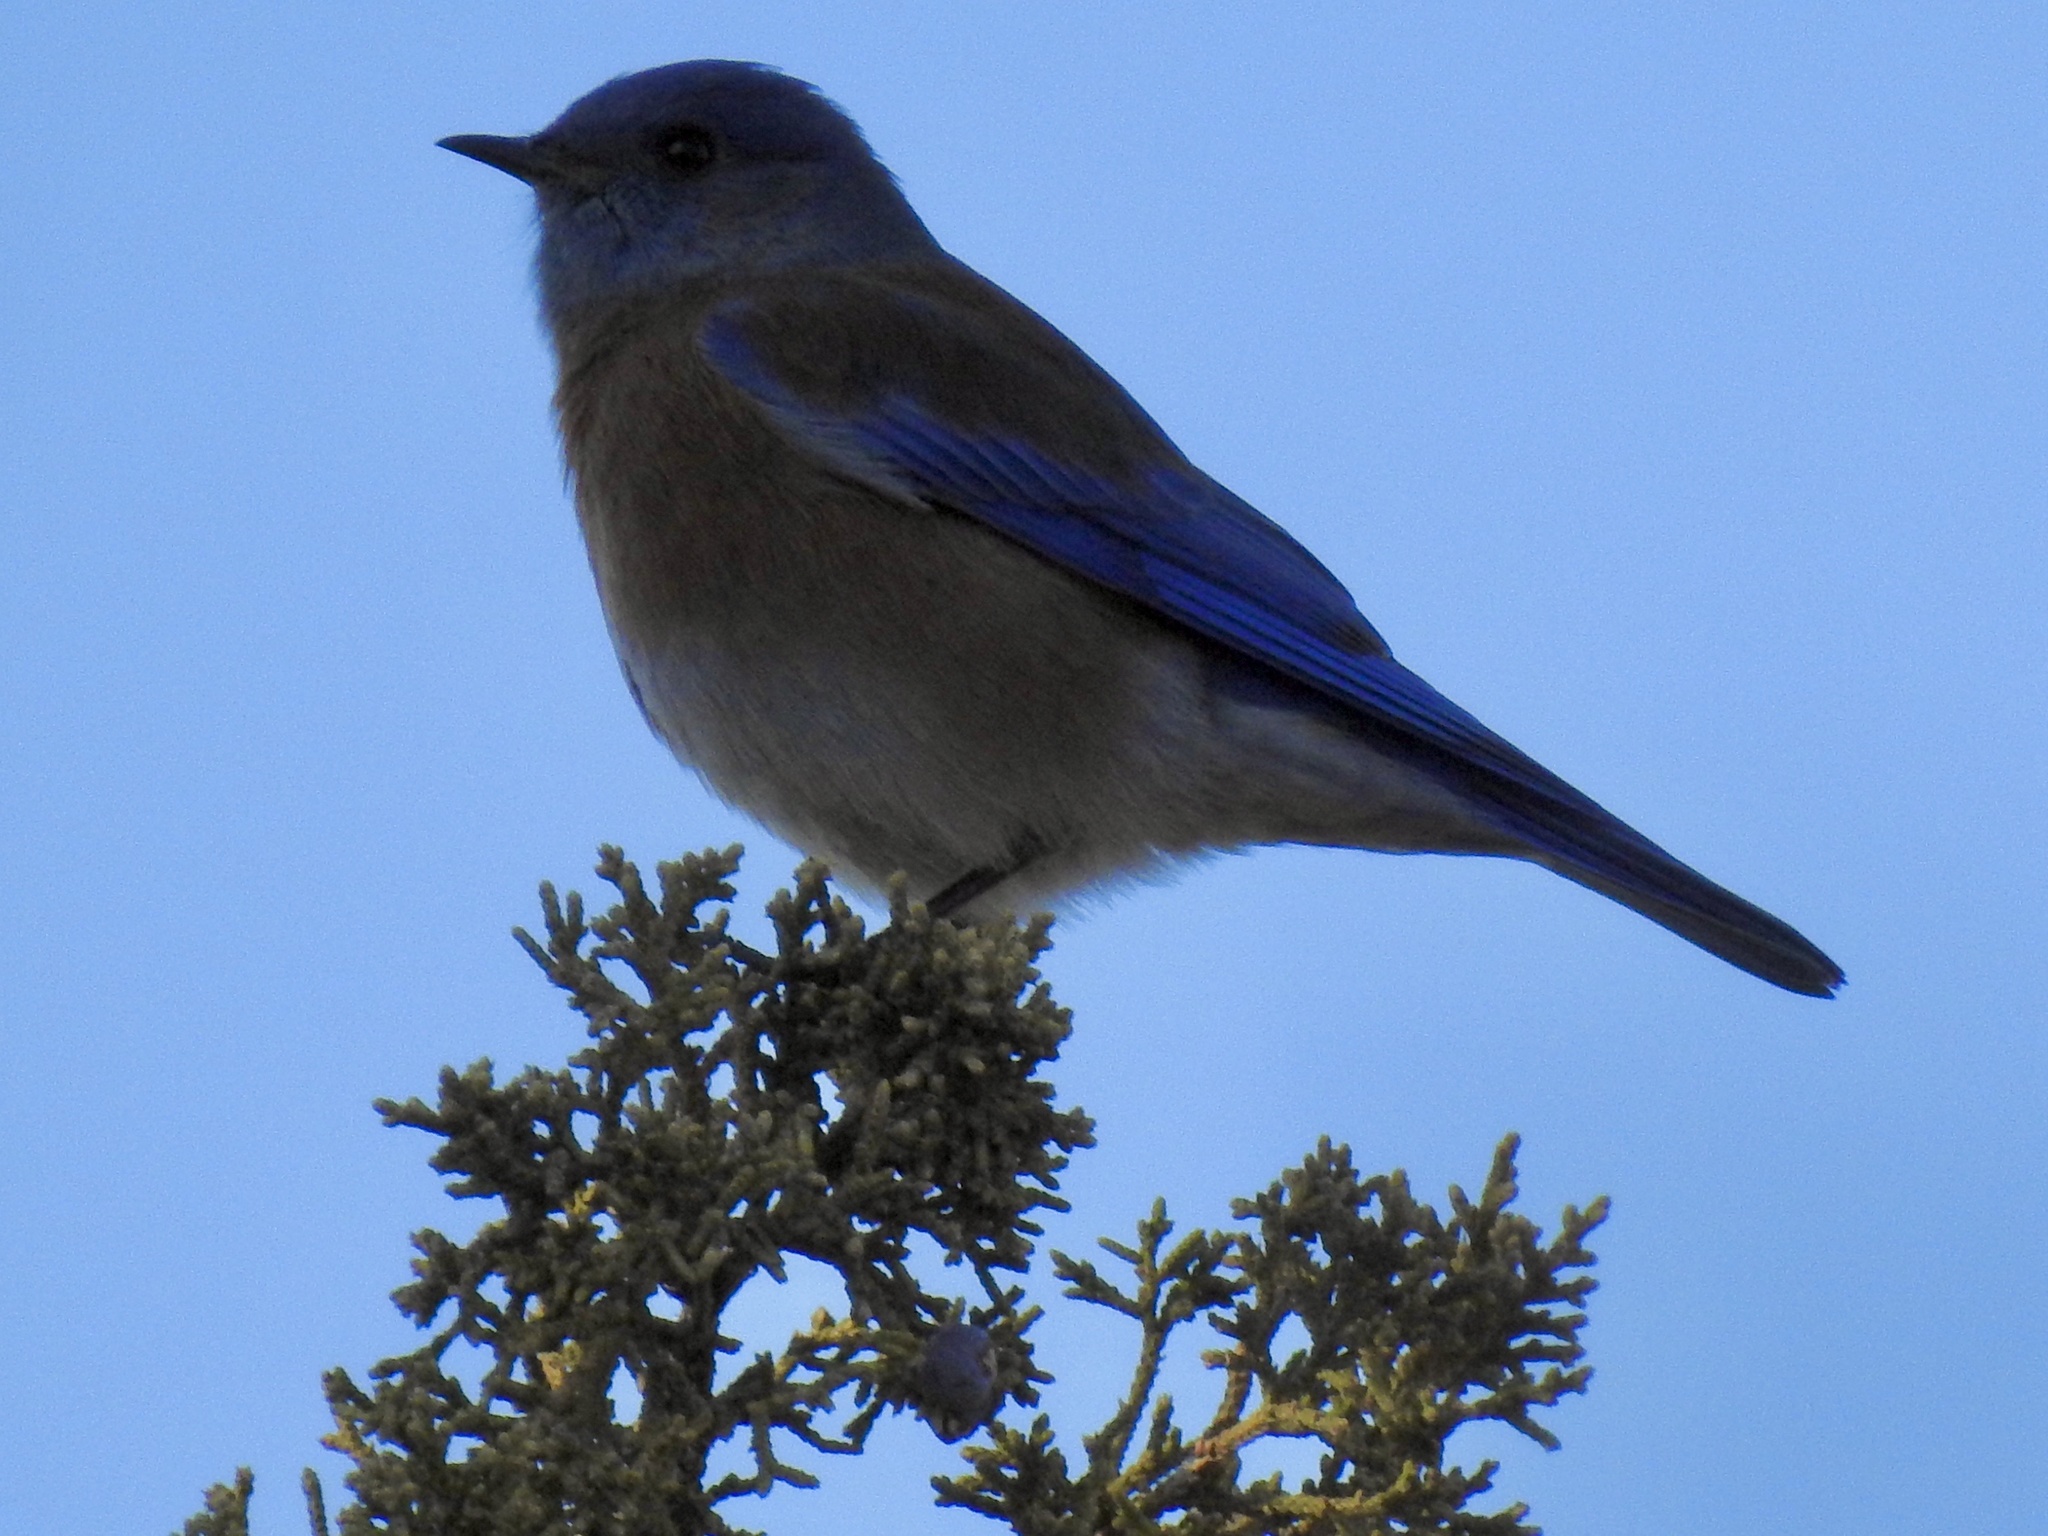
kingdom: Animalia
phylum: Chordata
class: Aves
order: Passeriformes
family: Turdidae
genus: Sialia
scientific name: Sialia mexicana
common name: Western bluebird
